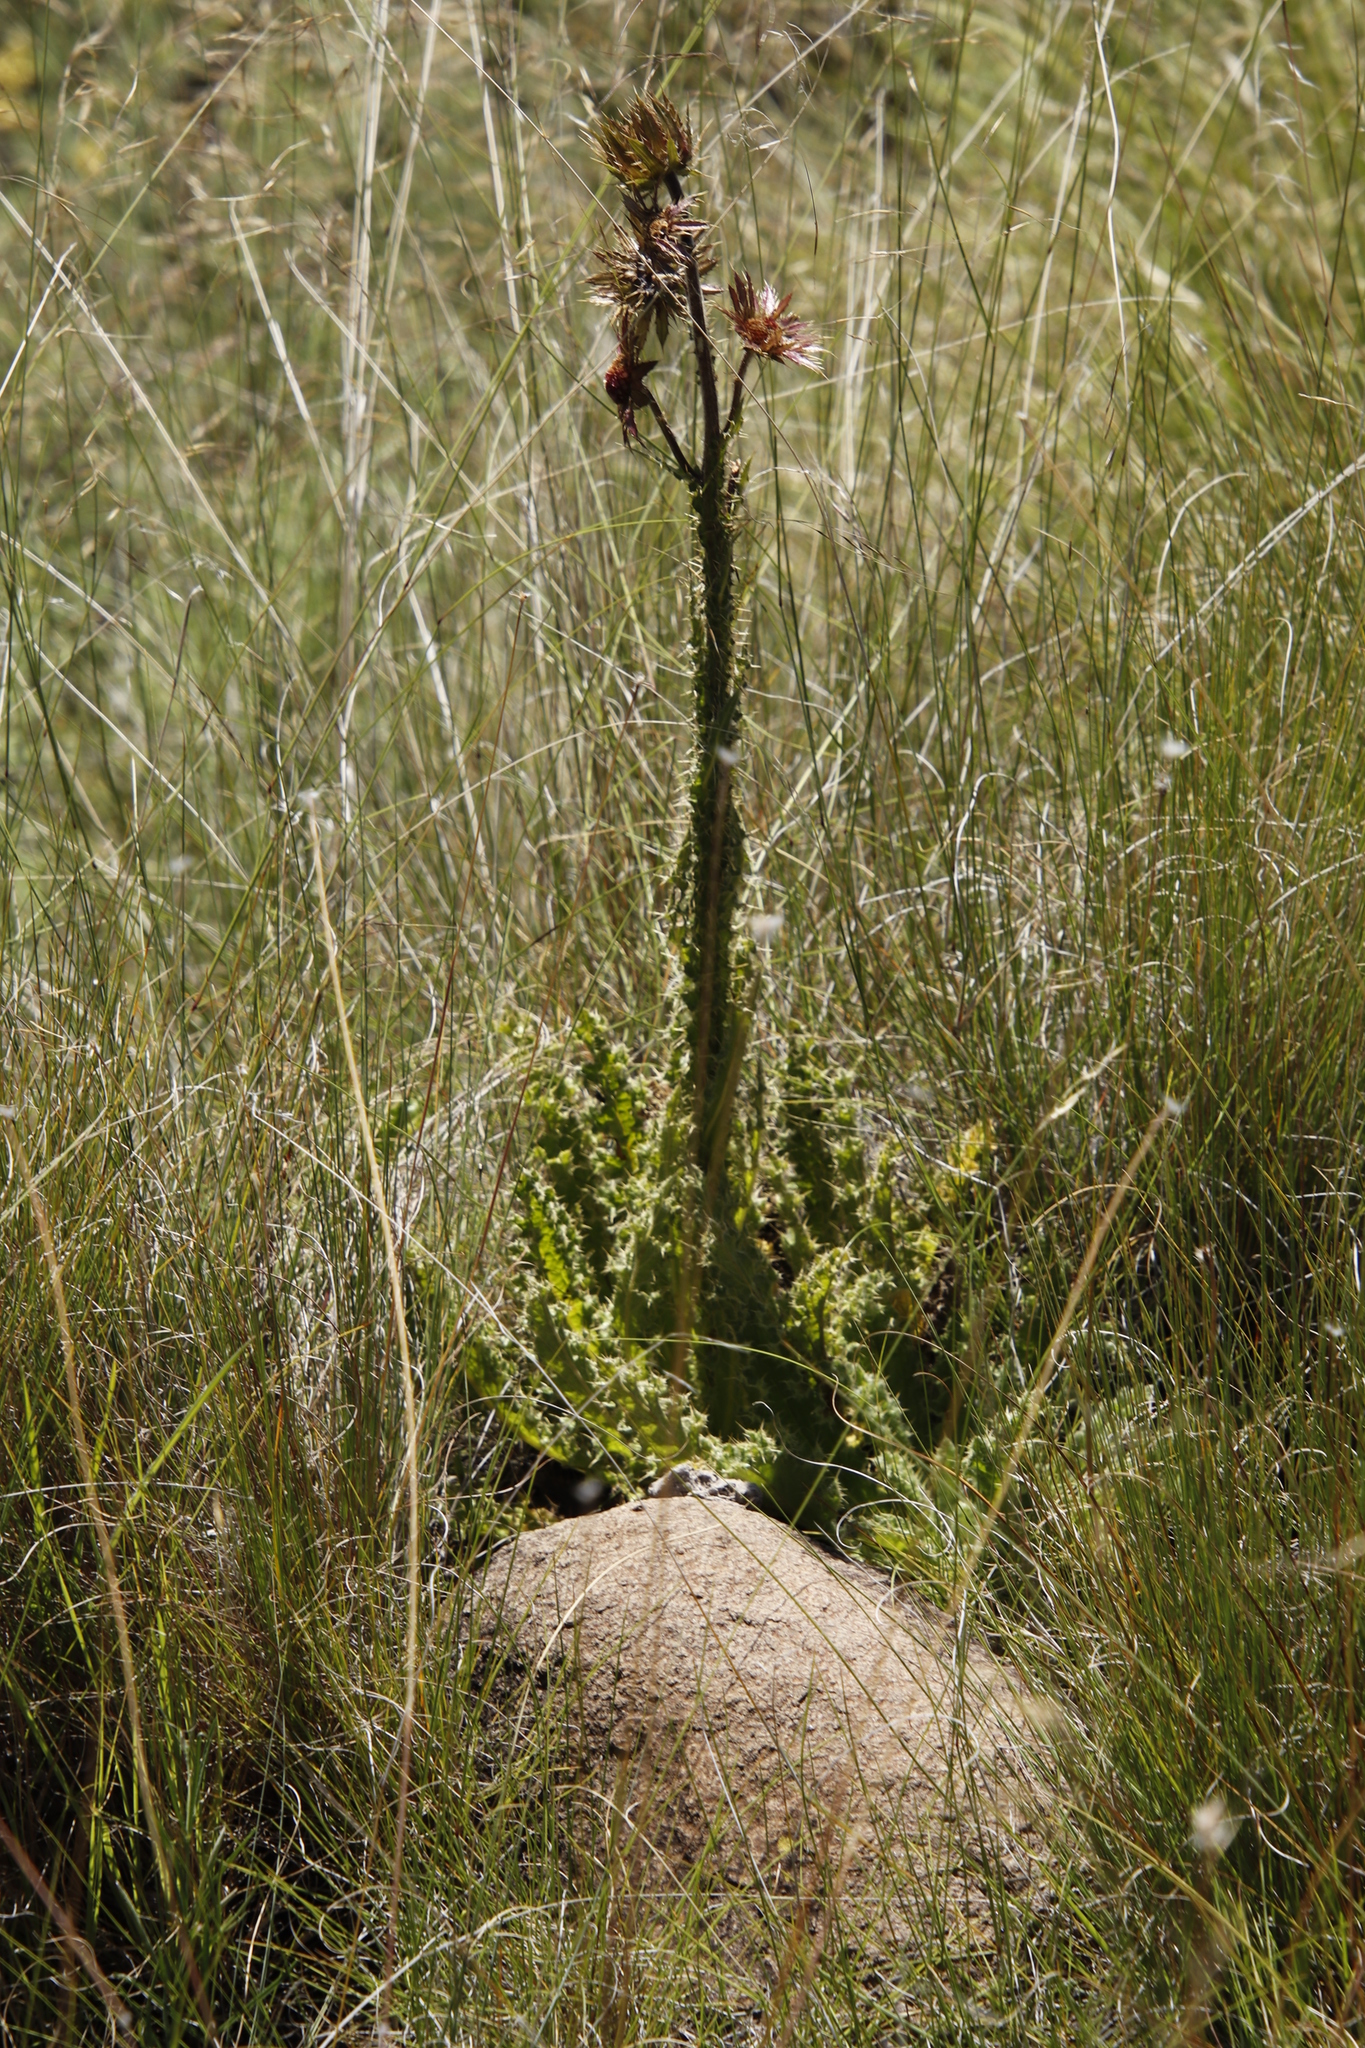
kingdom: Plantae
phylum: Tracheophyta
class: Magnoliopsida
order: Asterales
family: Asteraceae
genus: Berkheya
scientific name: Berkheya purpurea
